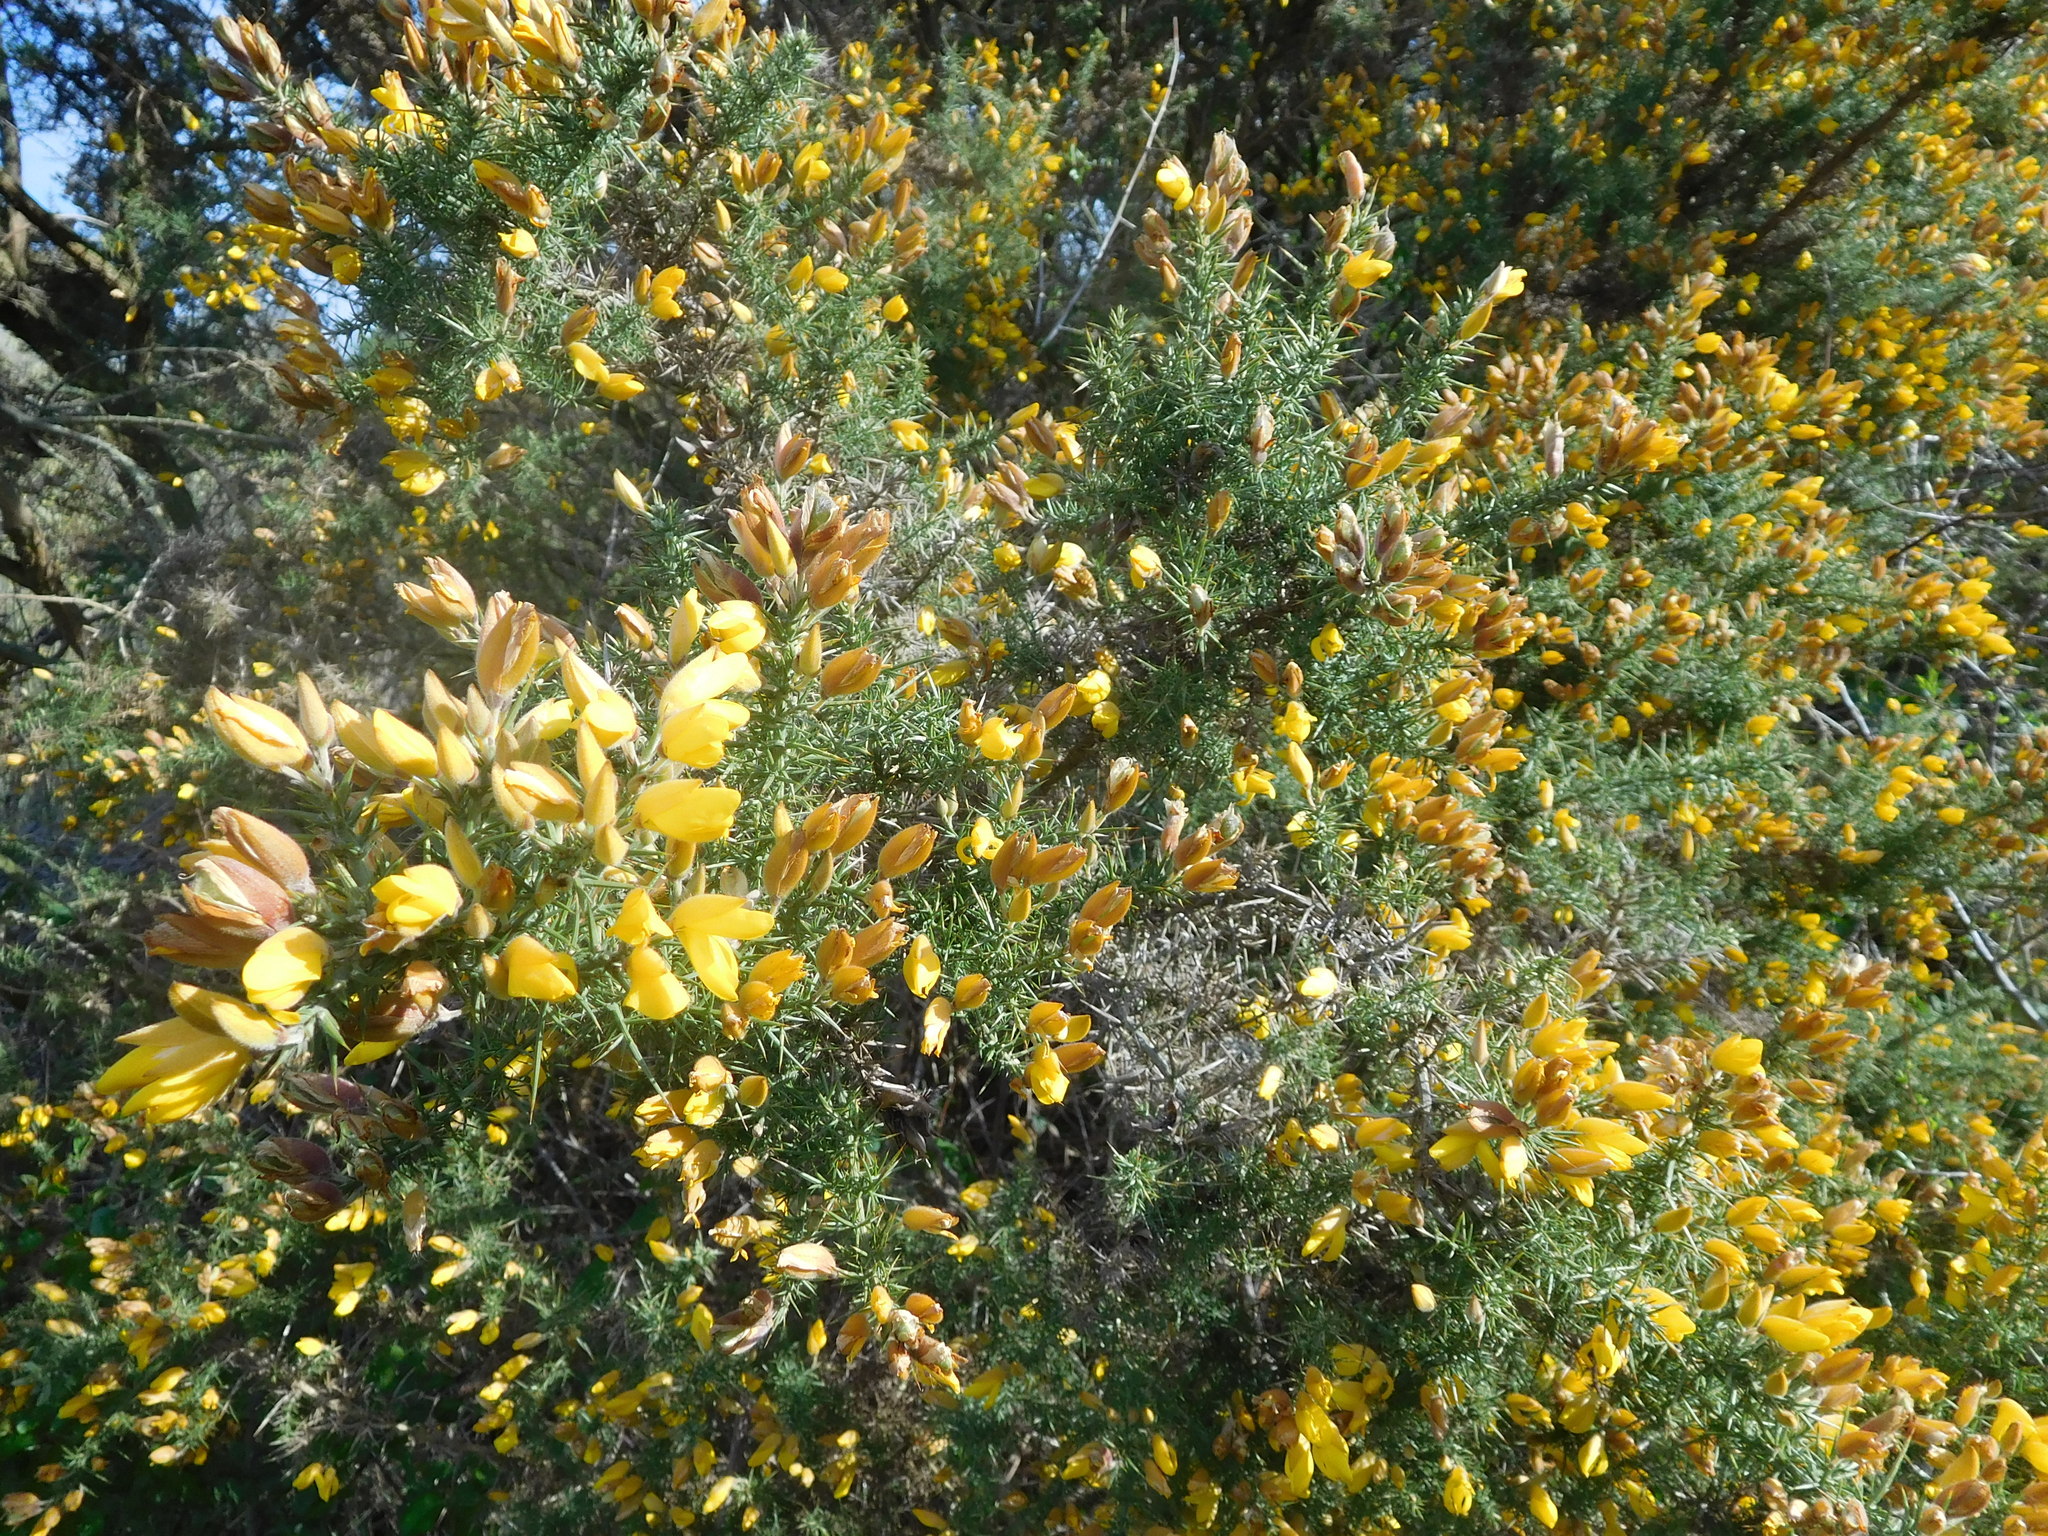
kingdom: Plantae
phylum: Tracheophyta
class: Magnoliopsida
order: Fabales
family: Fabaceae
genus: Ulex
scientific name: Ulex europaeus
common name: Common gorse
